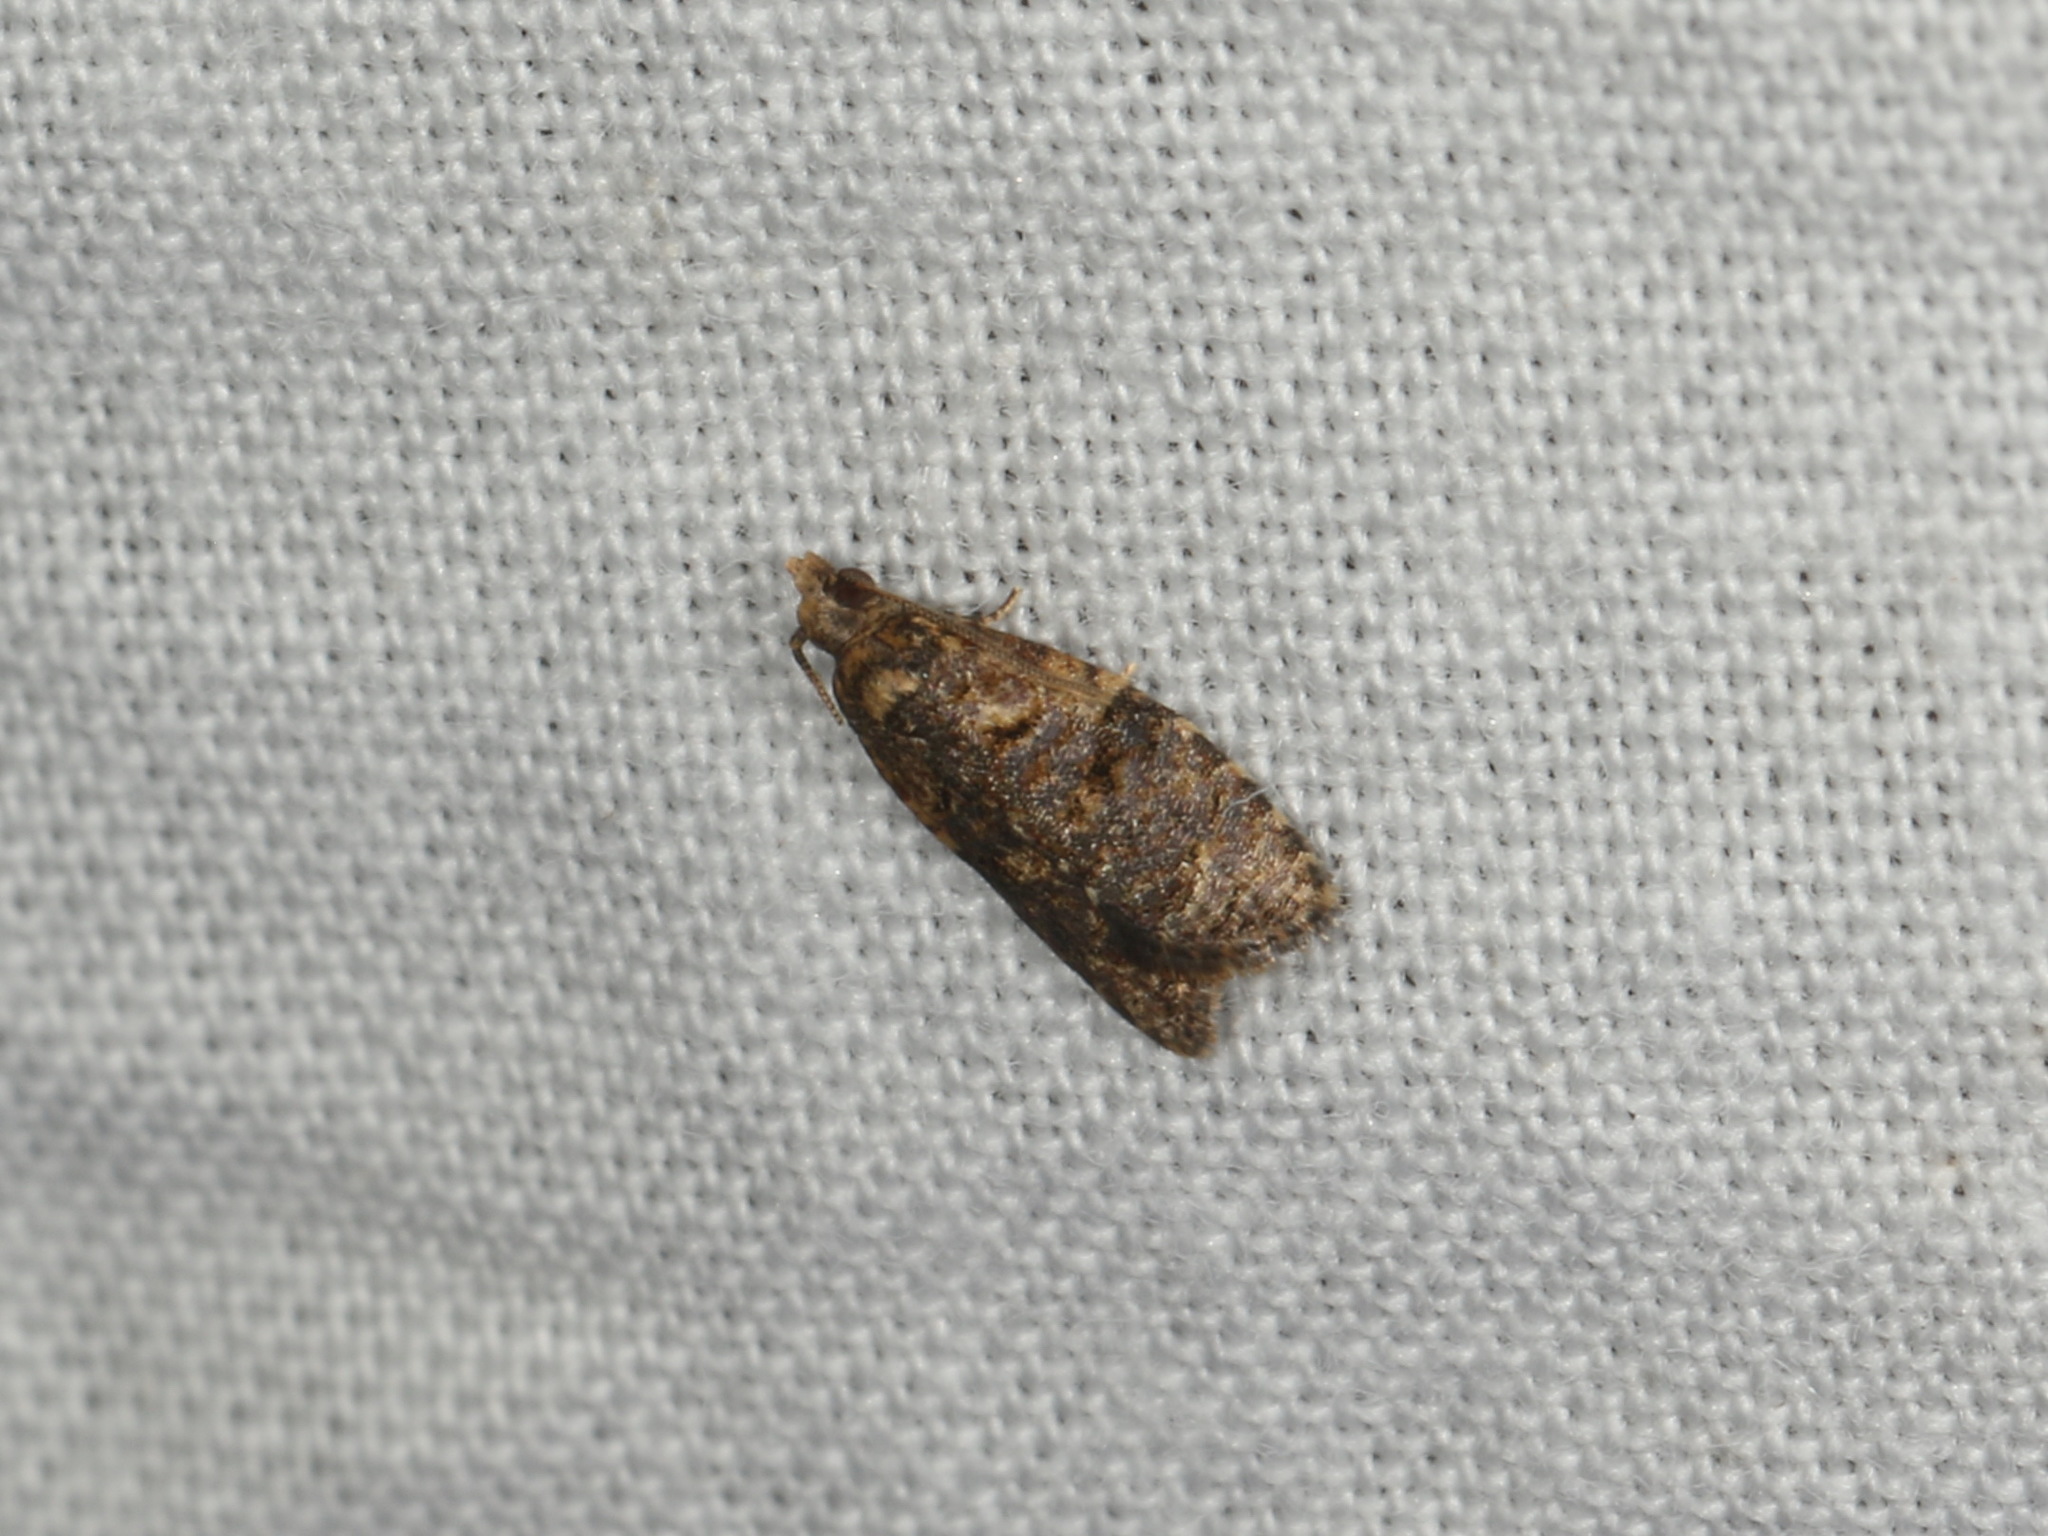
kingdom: Animalia
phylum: Arthropoda
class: Insecta
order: Lepidoptera
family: Tortricidae
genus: Capua
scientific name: Capua intractana
